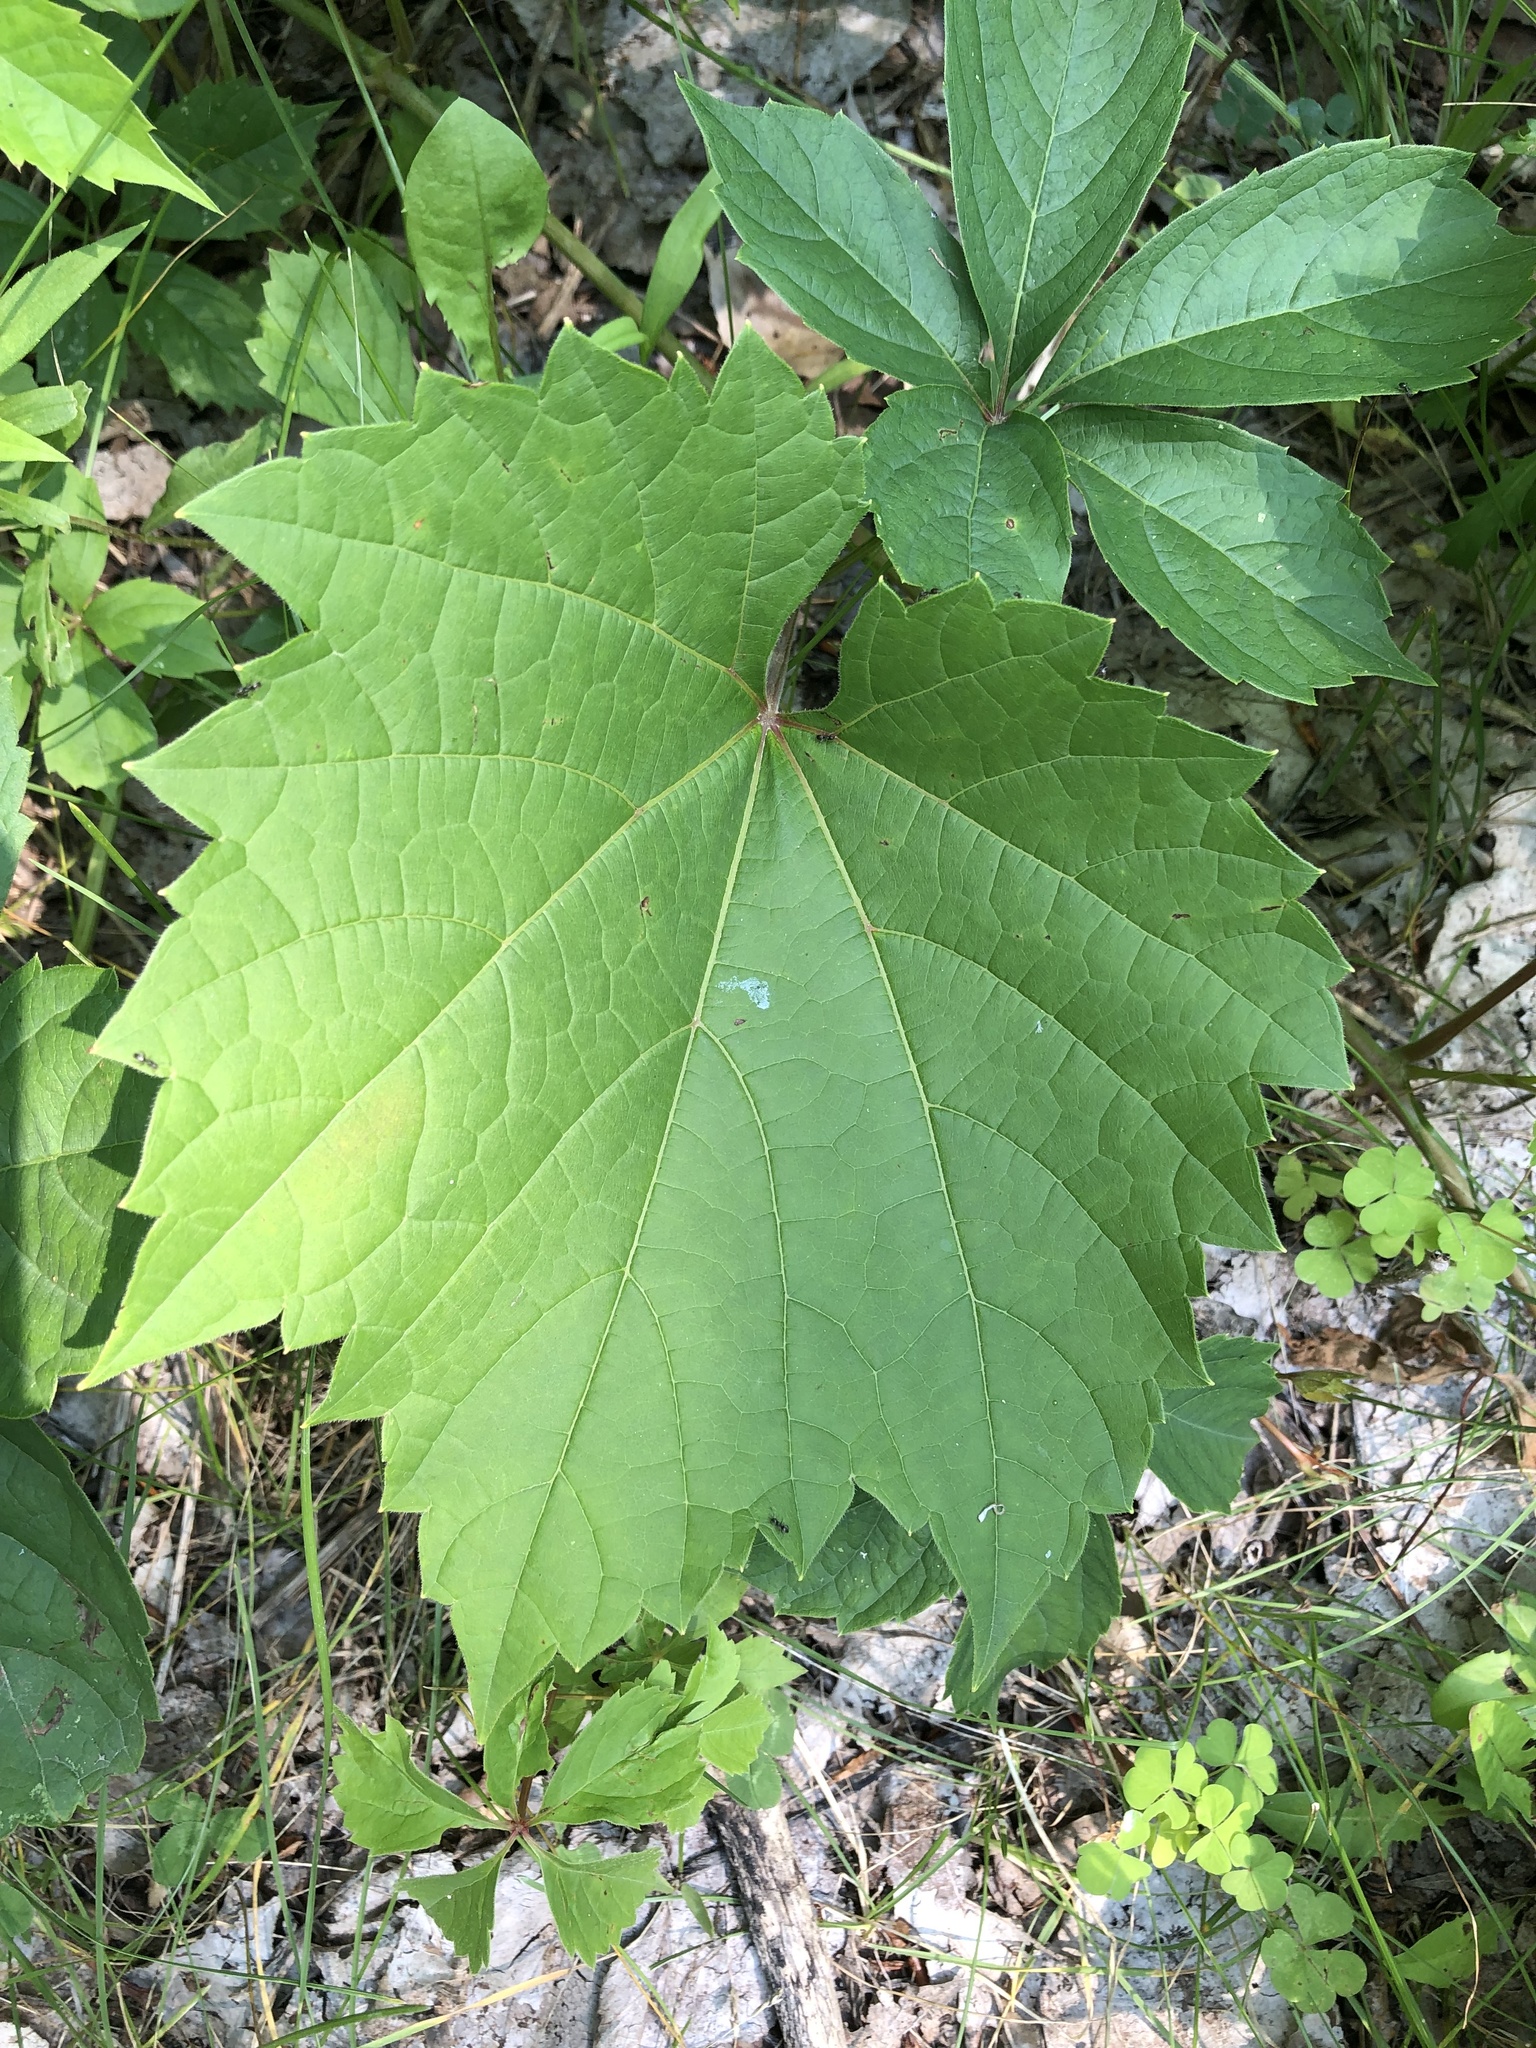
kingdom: Plantae
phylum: Tracheophyta
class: Magnoliopsida
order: Vitales
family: Vitaceae
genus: Vitis
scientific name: Vitis riparia
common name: Frost grape
